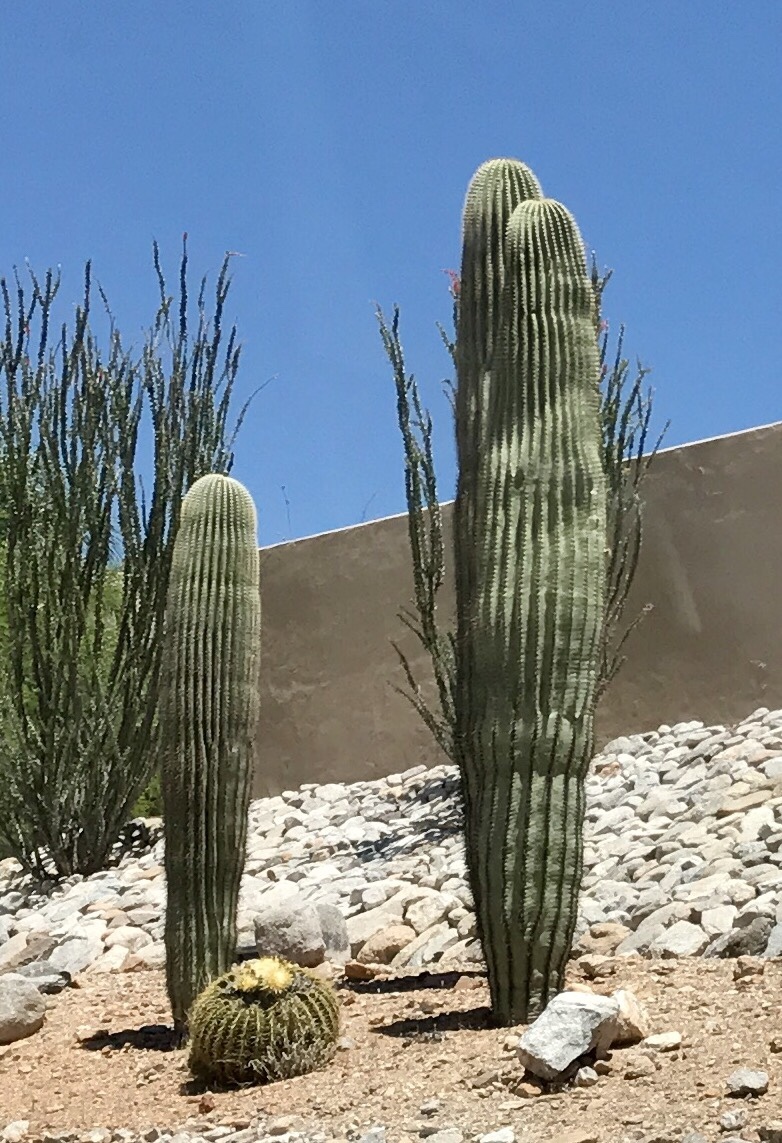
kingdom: Plantae
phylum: Tracheophyta
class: Magnoliopsida
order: Caryophyllales
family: Cactaceae
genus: Carnegiea
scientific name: Carnegiea gigantea
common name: Saguaro
